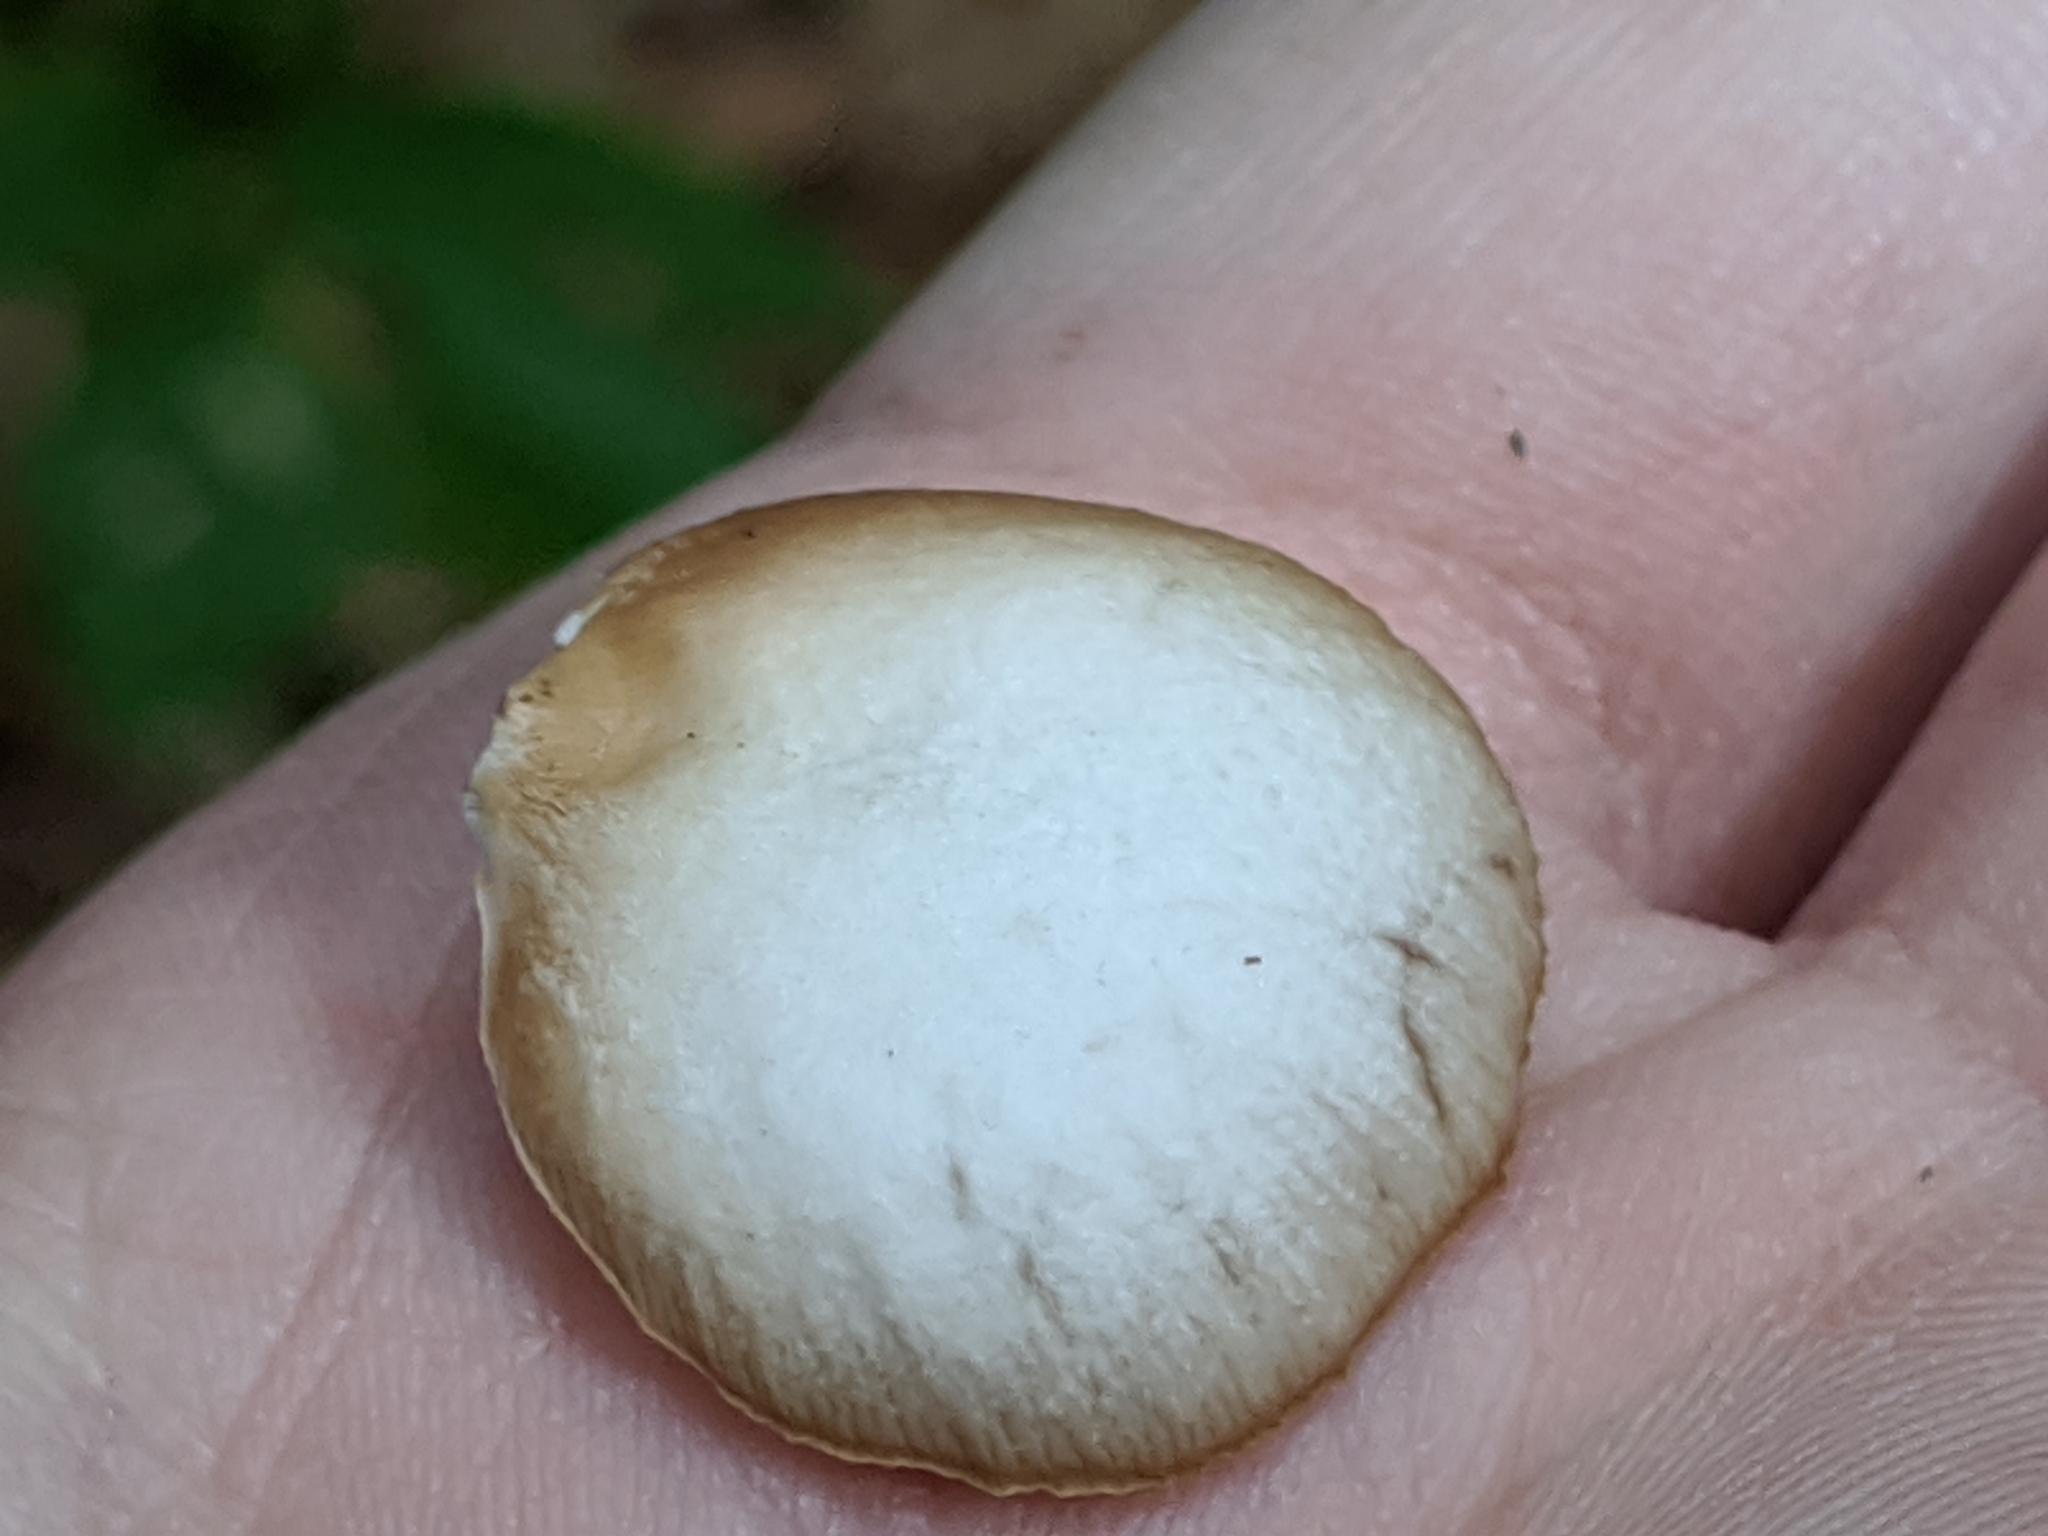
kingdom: Fungi
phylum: Basidiomycota
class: Agaricomycetes
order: Agaricales
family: Crepidotaceae
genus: Crepidotus
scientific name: Crepidotus applanatus
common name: Flat crep
